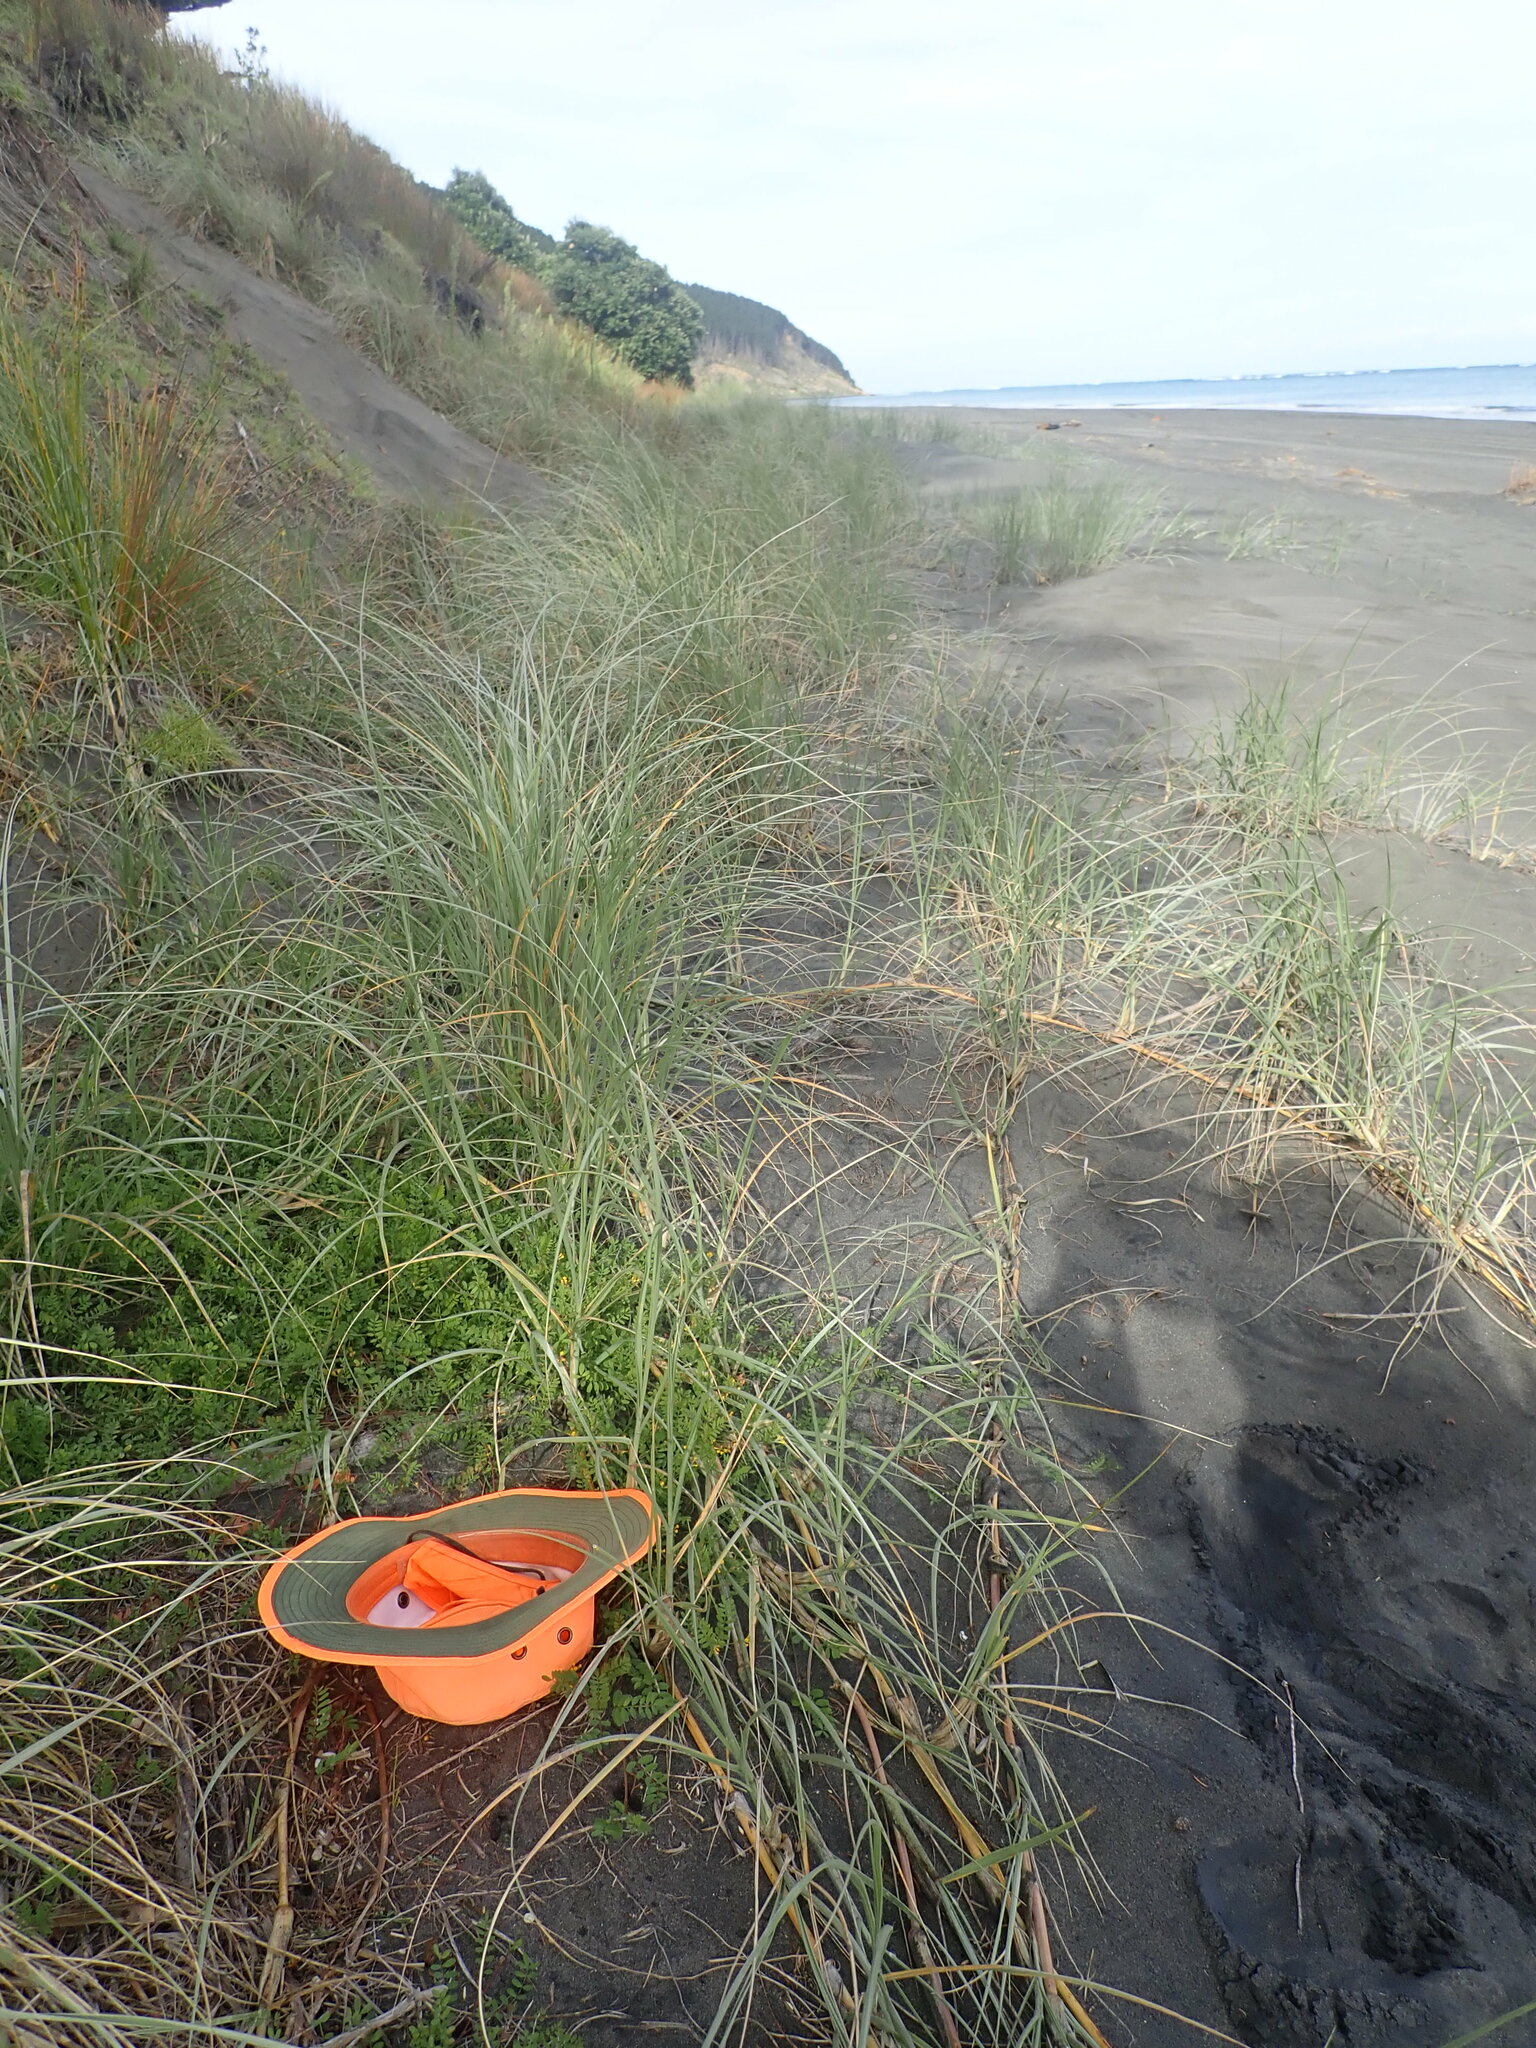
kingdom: Plantae
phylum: Tracheophyta
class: Magnoliopsida
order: Fabales
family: Fabaceae
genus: Ornithopus
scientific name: Ornithopus compressus
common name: Yellow serradella
